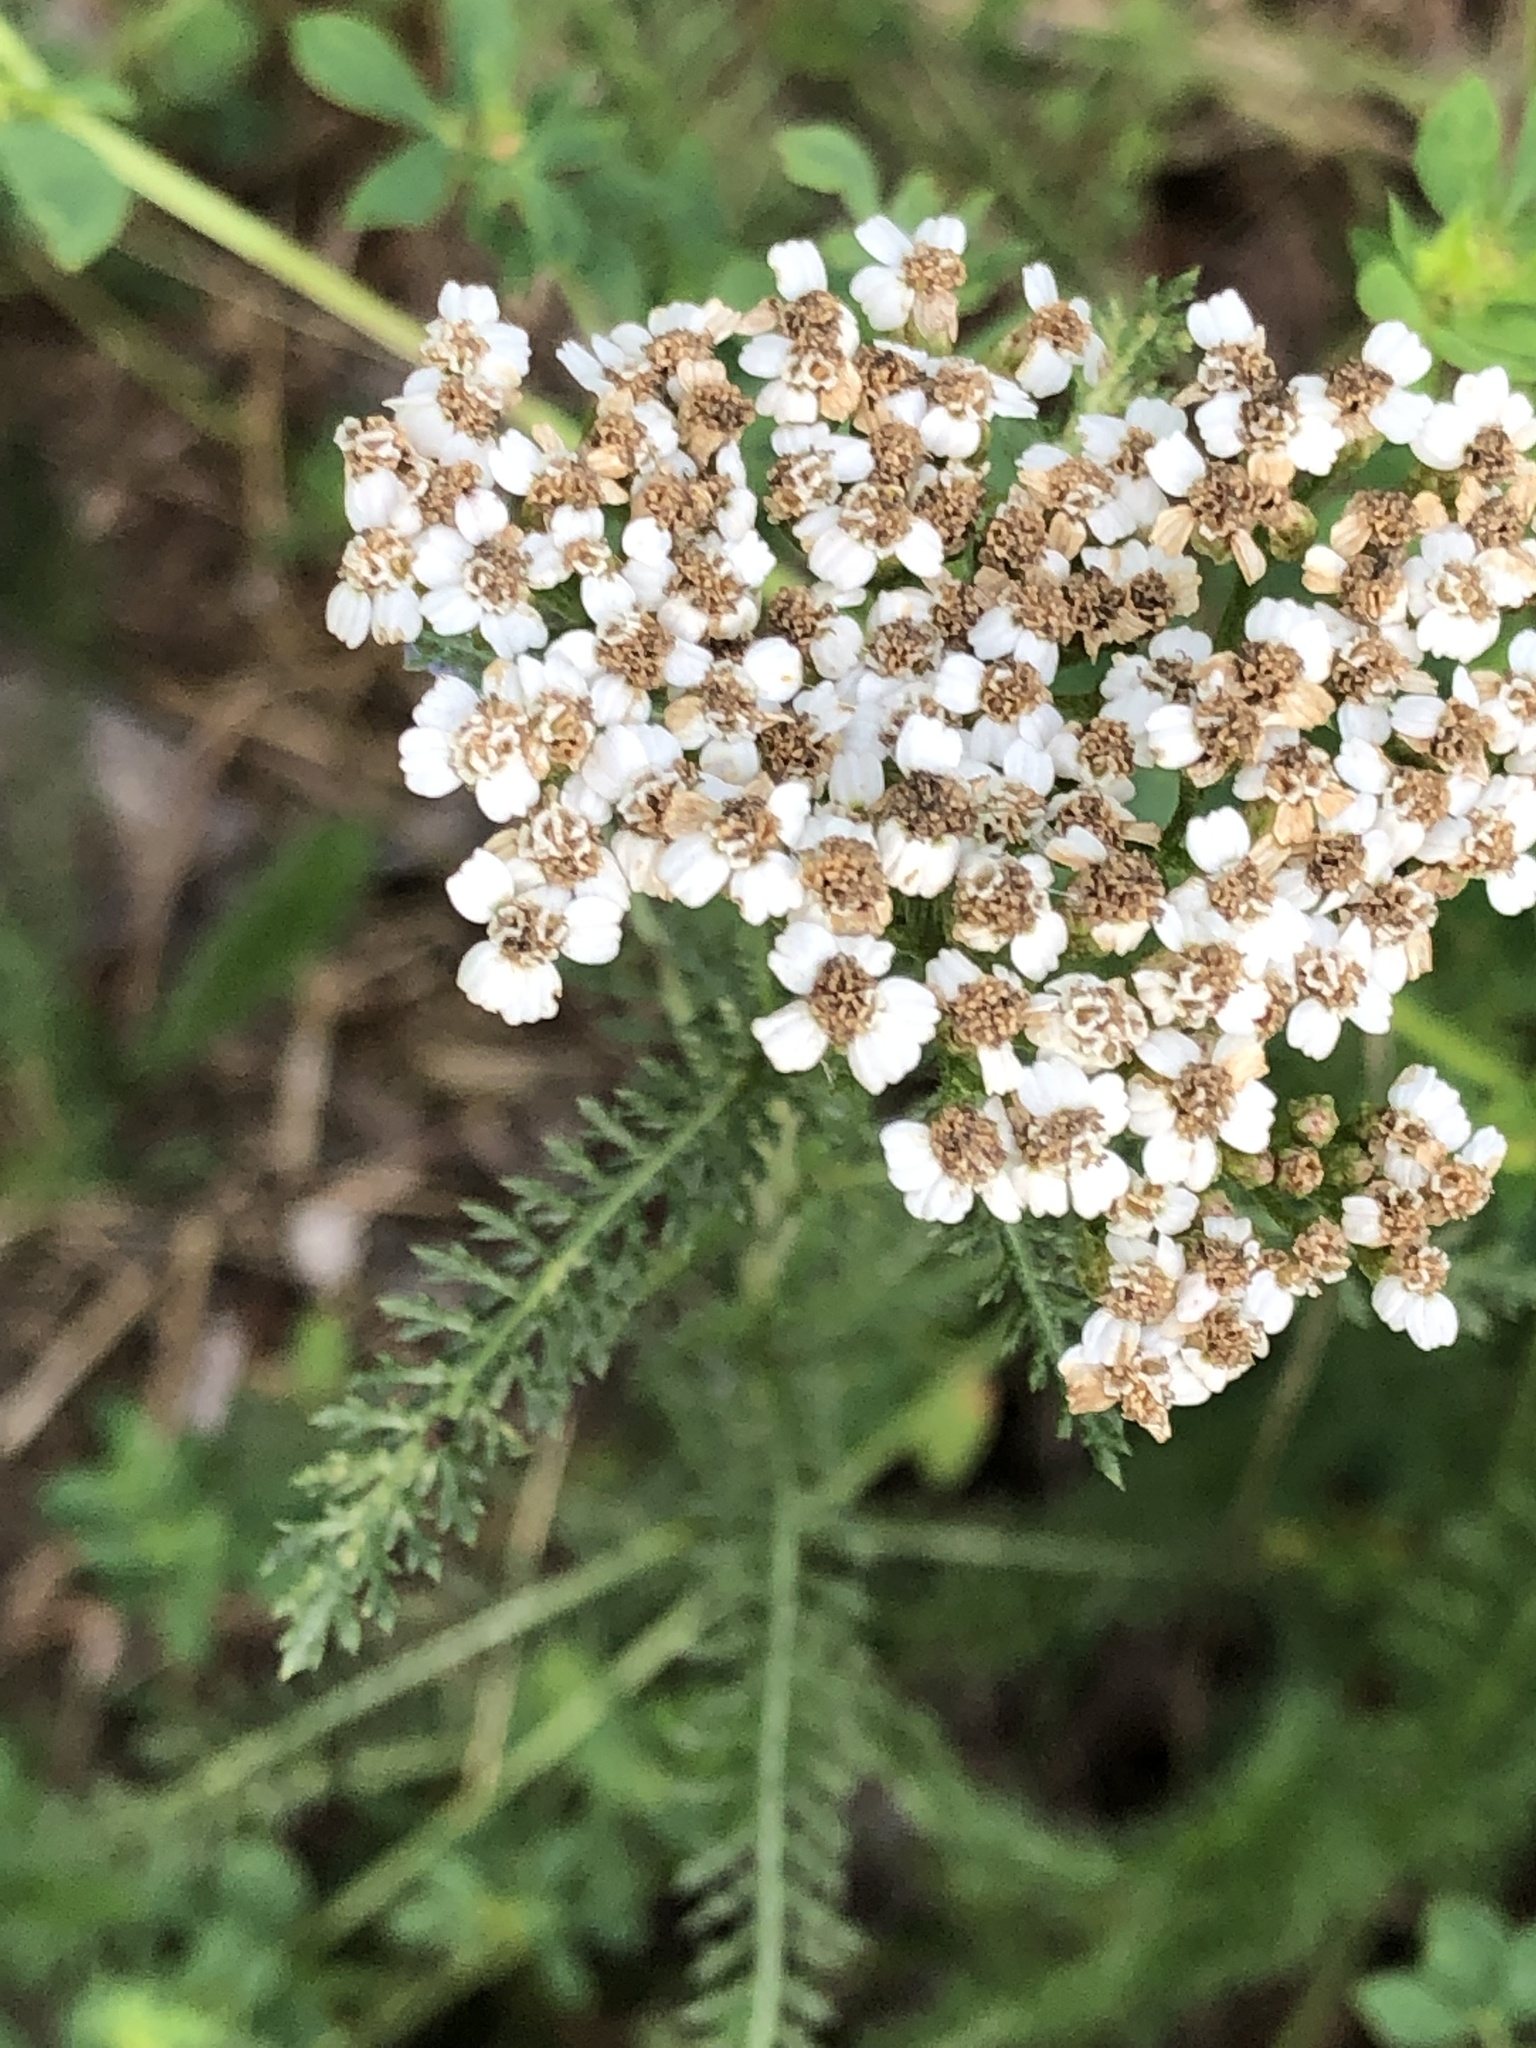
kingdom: Plantae
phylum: Tracheophyta
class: Magnoliopsida
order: Asterales
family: Asteraceae
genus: Achillea
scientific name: Achillea millefolium
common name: Yarrow
